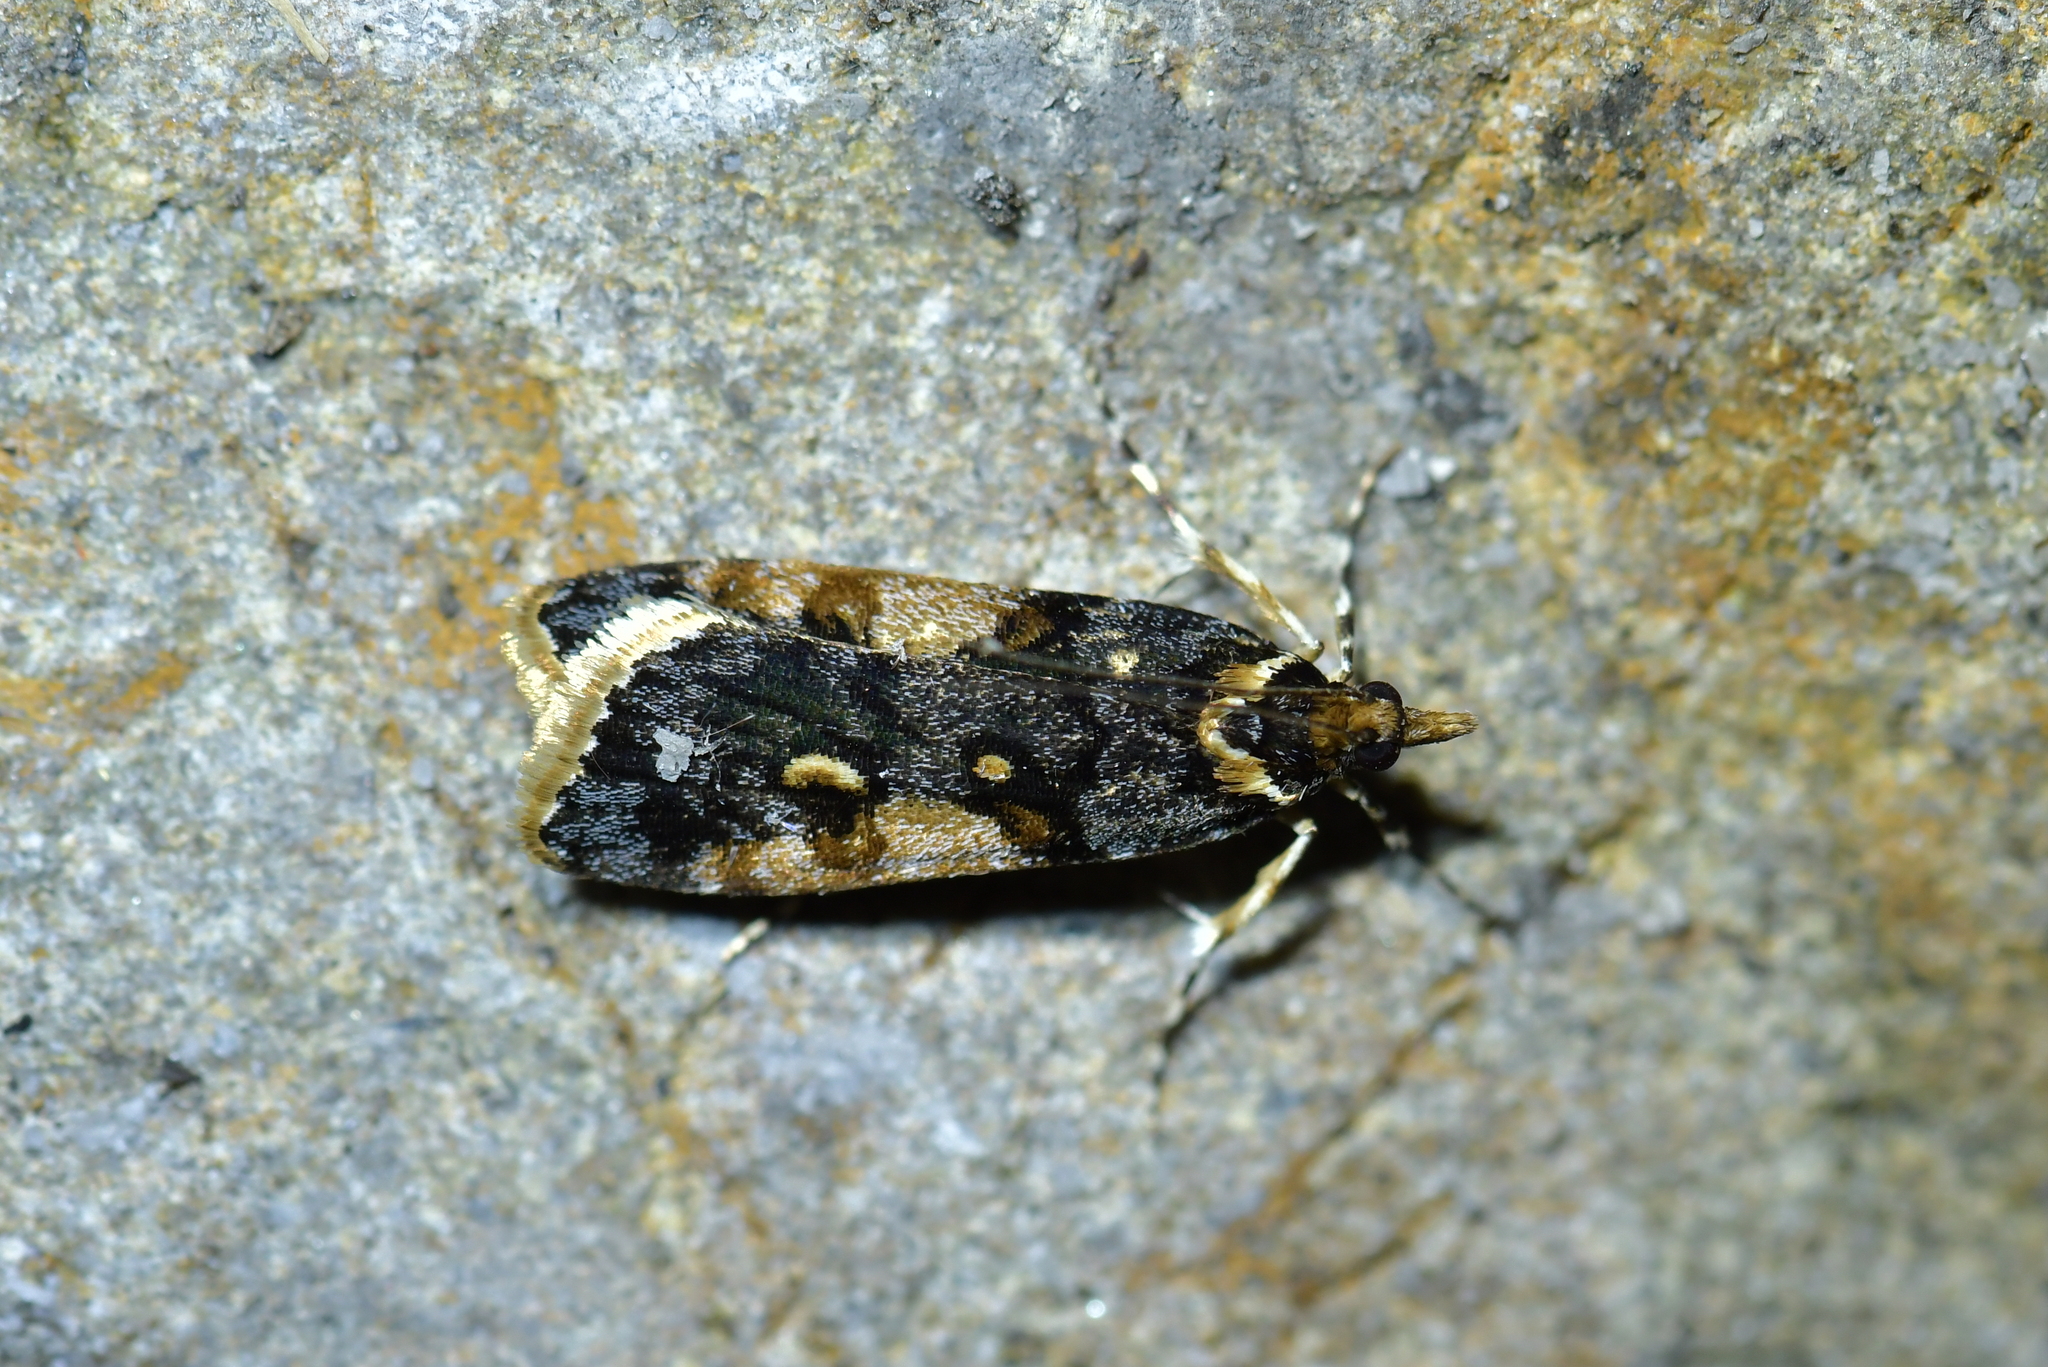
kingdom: Animalia
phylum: Arthropoda
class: Insecta
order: Lepidoptera
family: Crambidae
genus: Scoparia
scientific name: Scoparia phalerias
